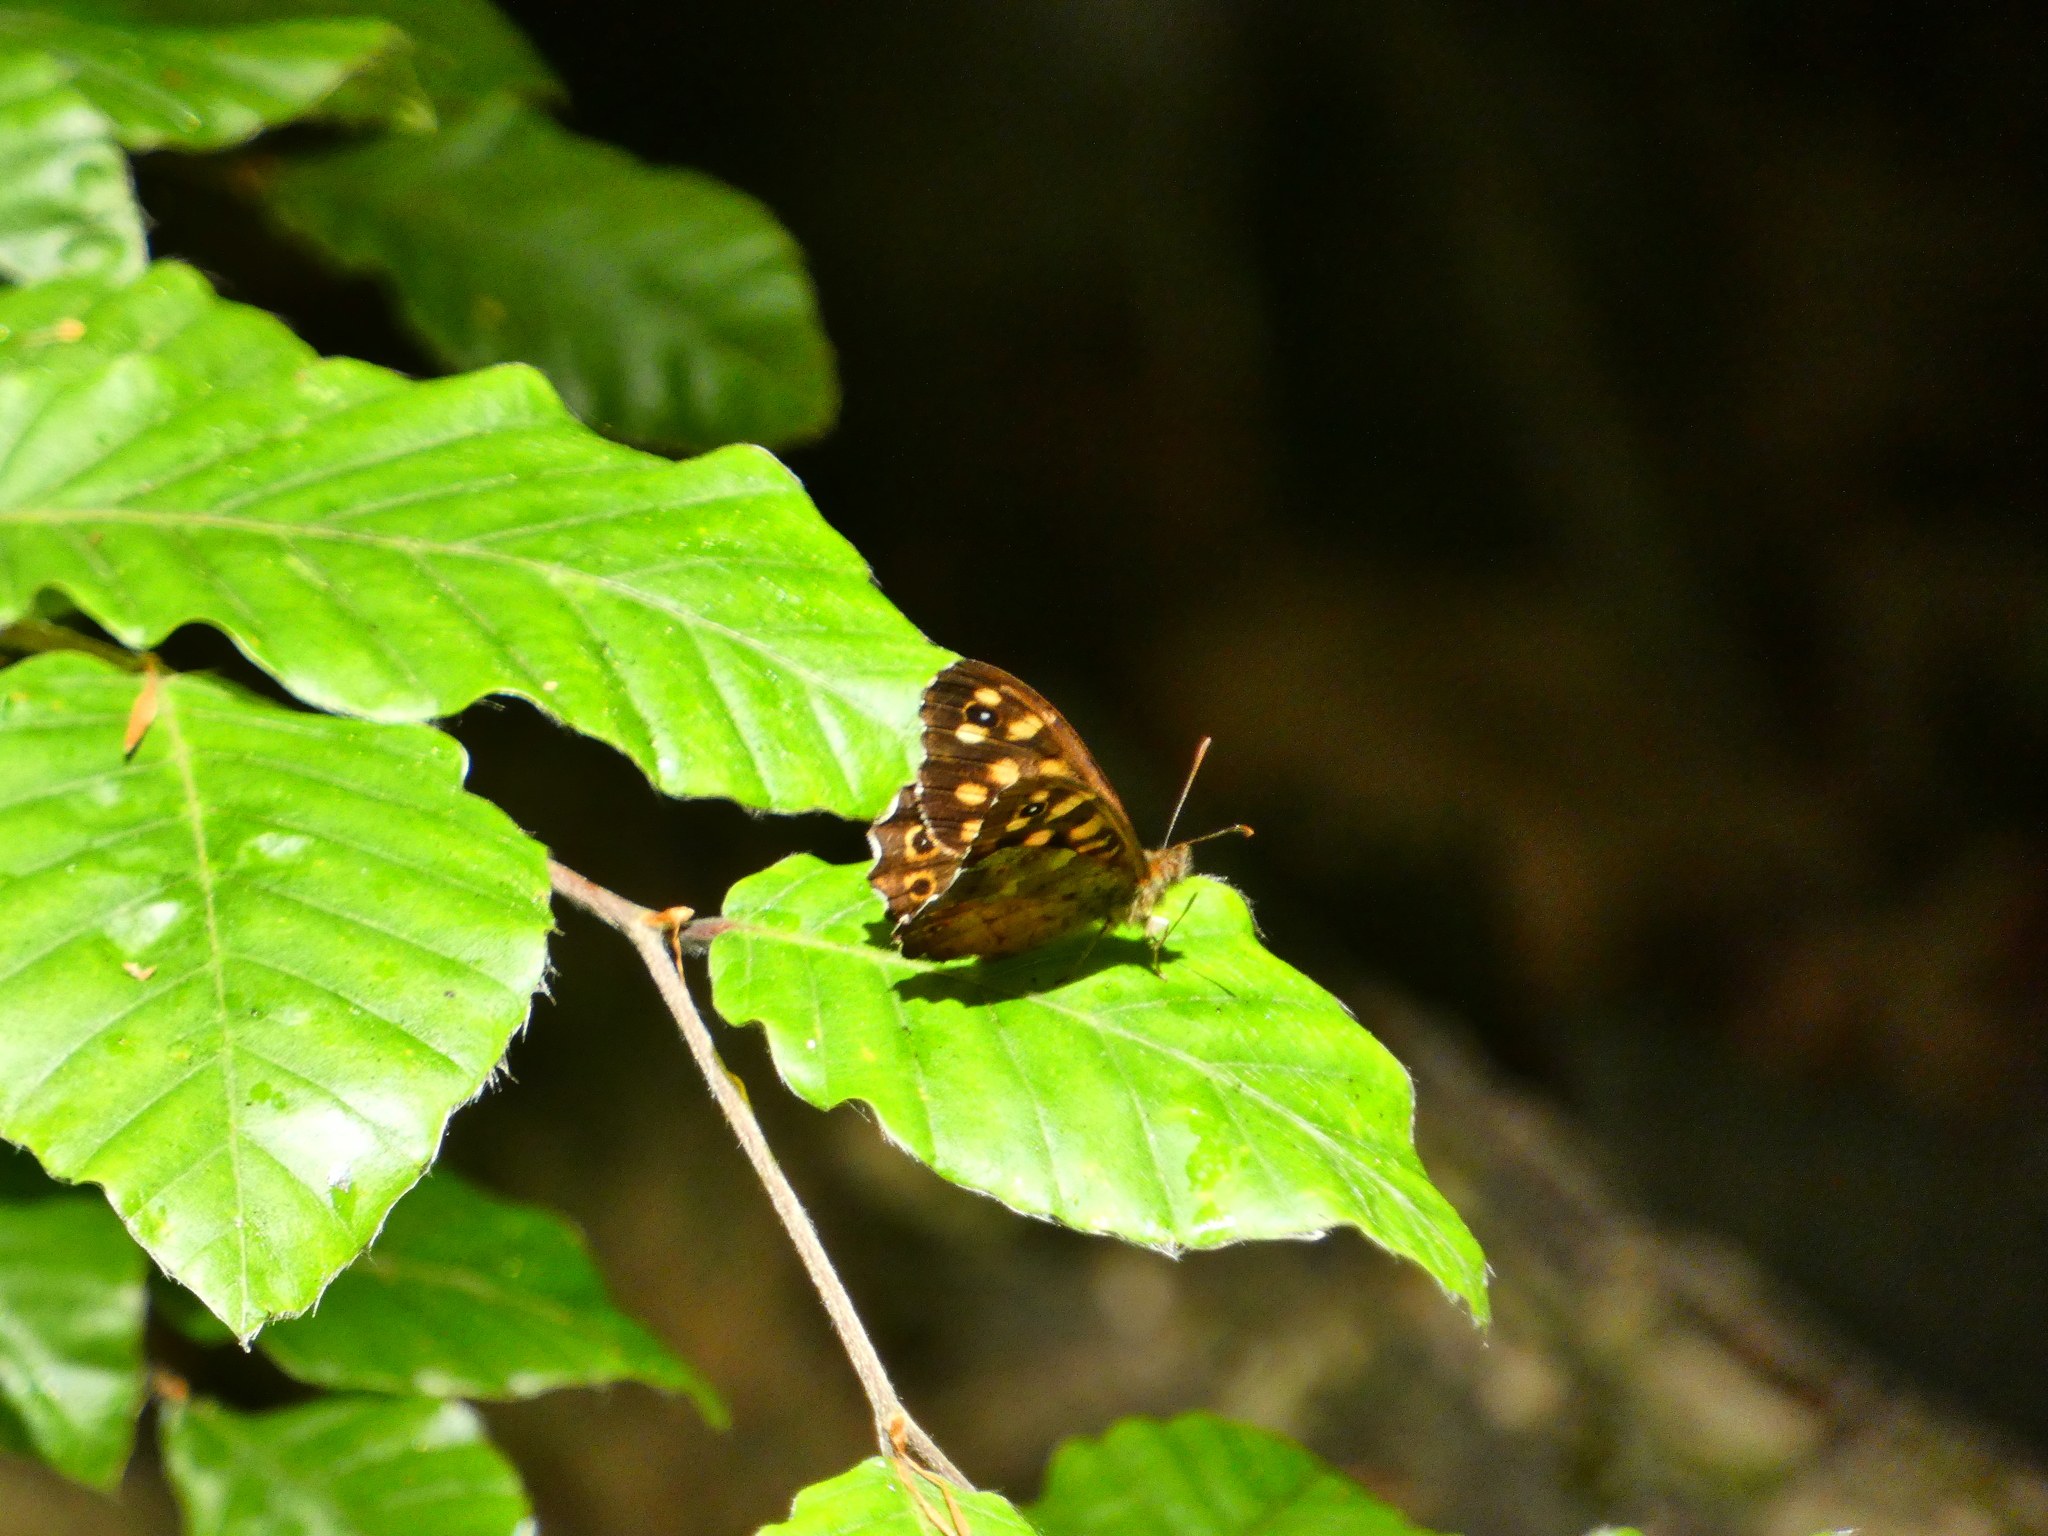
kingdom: Animalia
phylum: Arthropoda
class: Insecta
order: Lepidoptera
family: Nymphalidae
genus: Pararge
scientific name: Pararge aegeria
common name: Speckled wood
